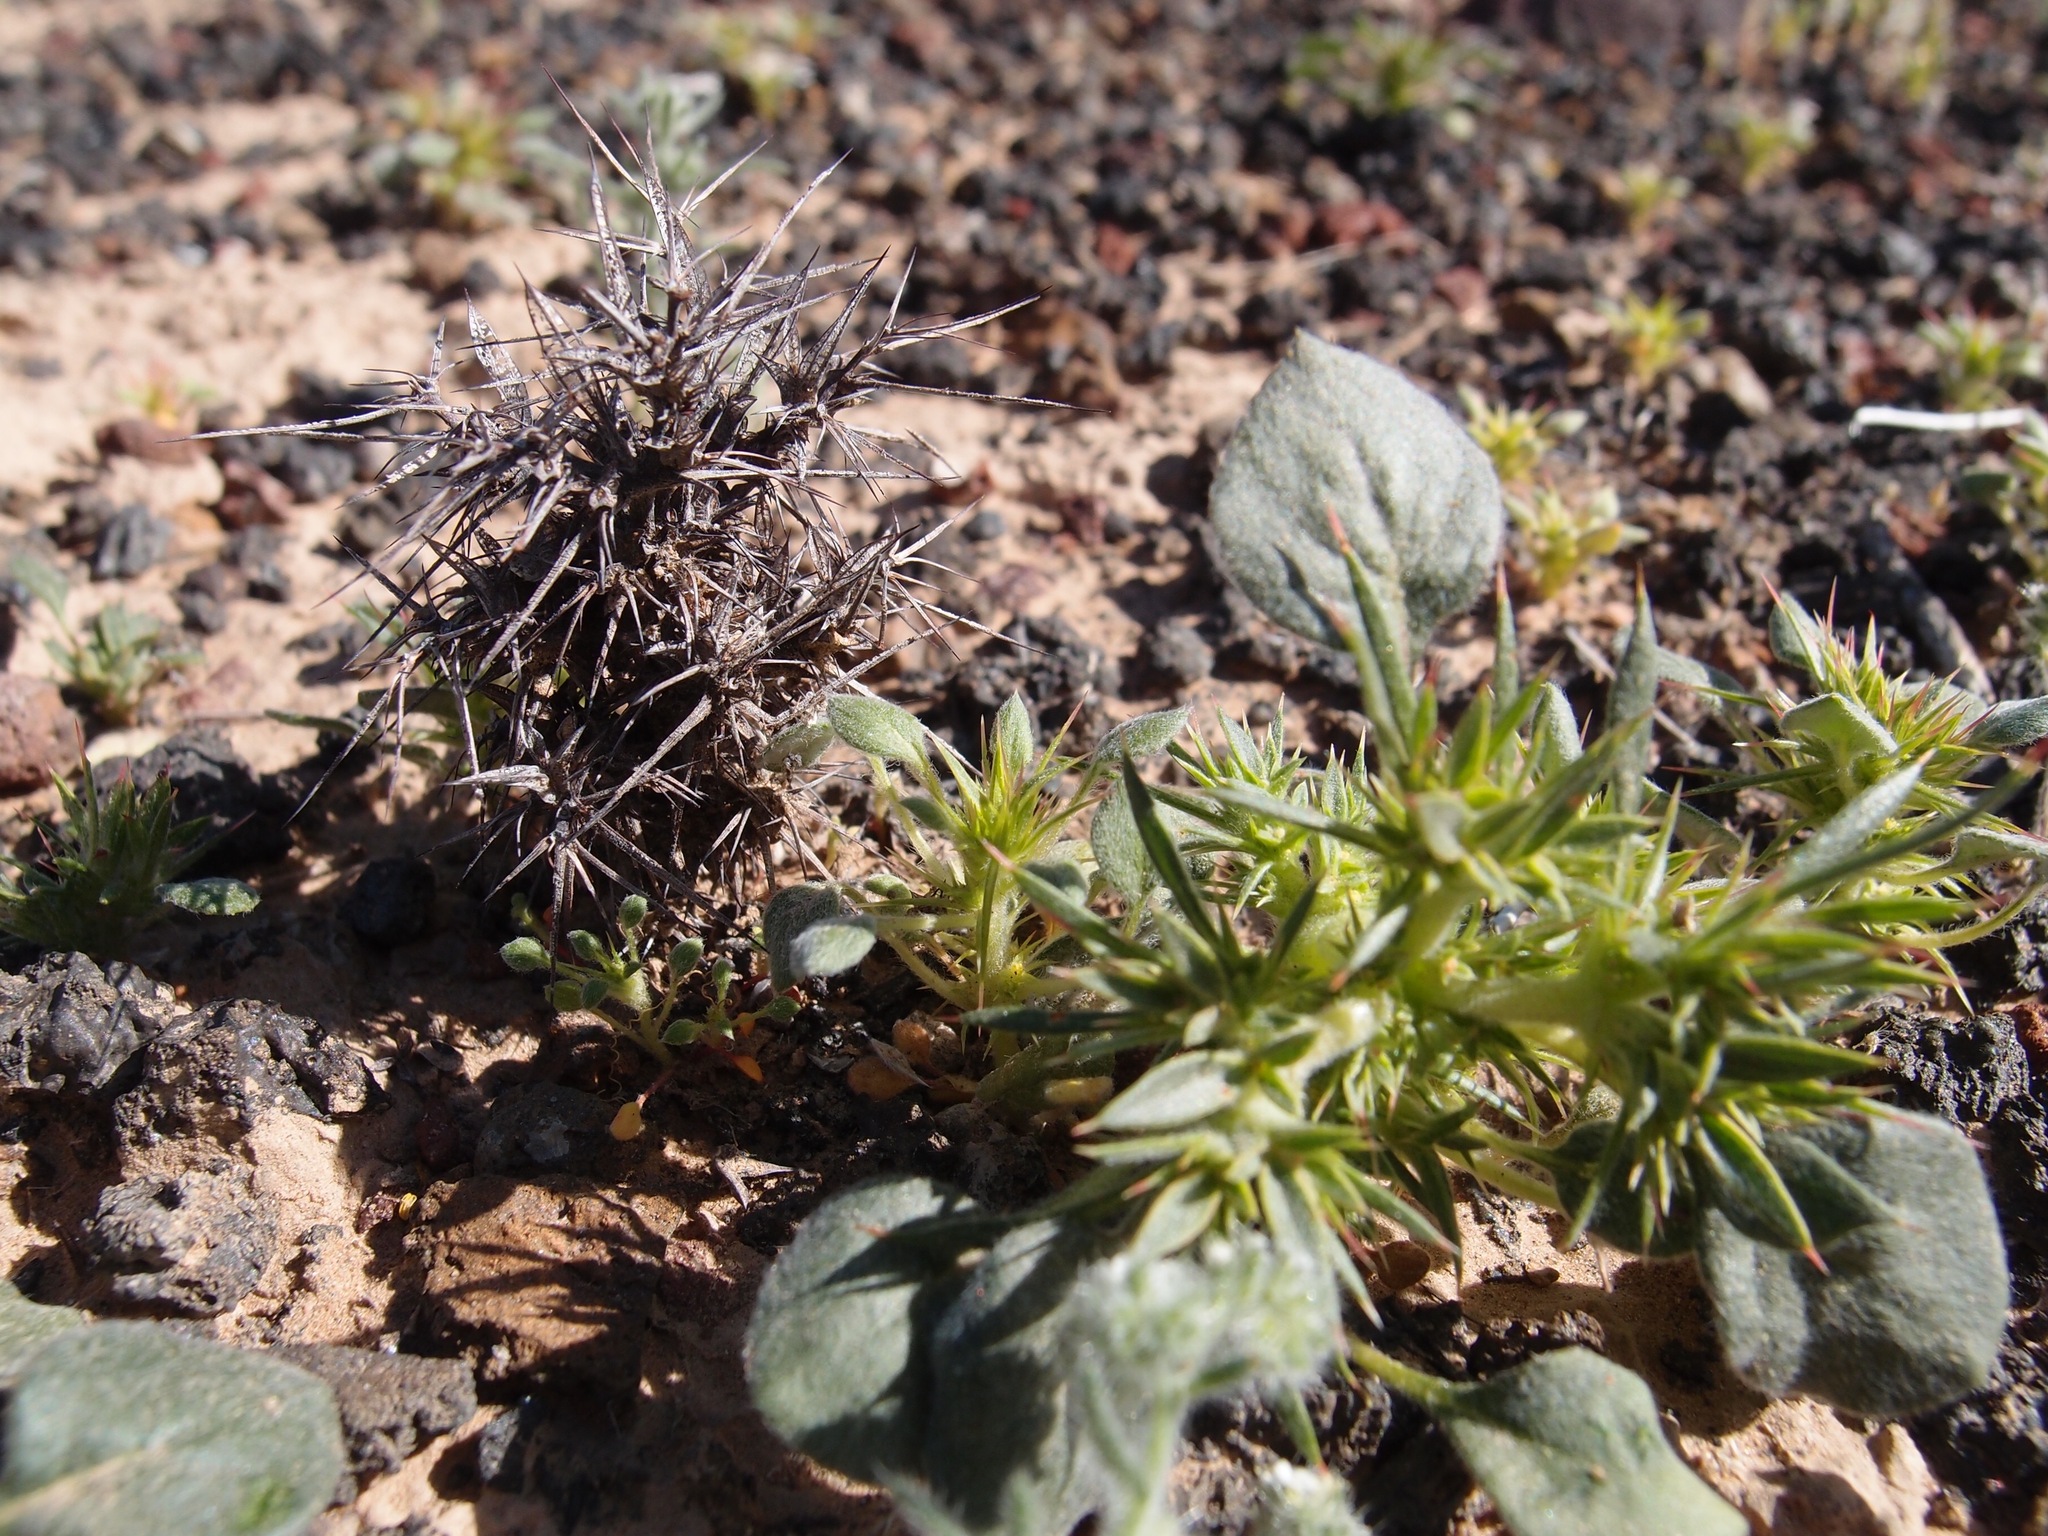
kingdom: Plantae
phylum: Tracheophyta
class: Magnoliopsida
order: Caryophyllales
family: Polygonaceae
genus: Chorizanthe
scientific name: Chorizanthe rigida
